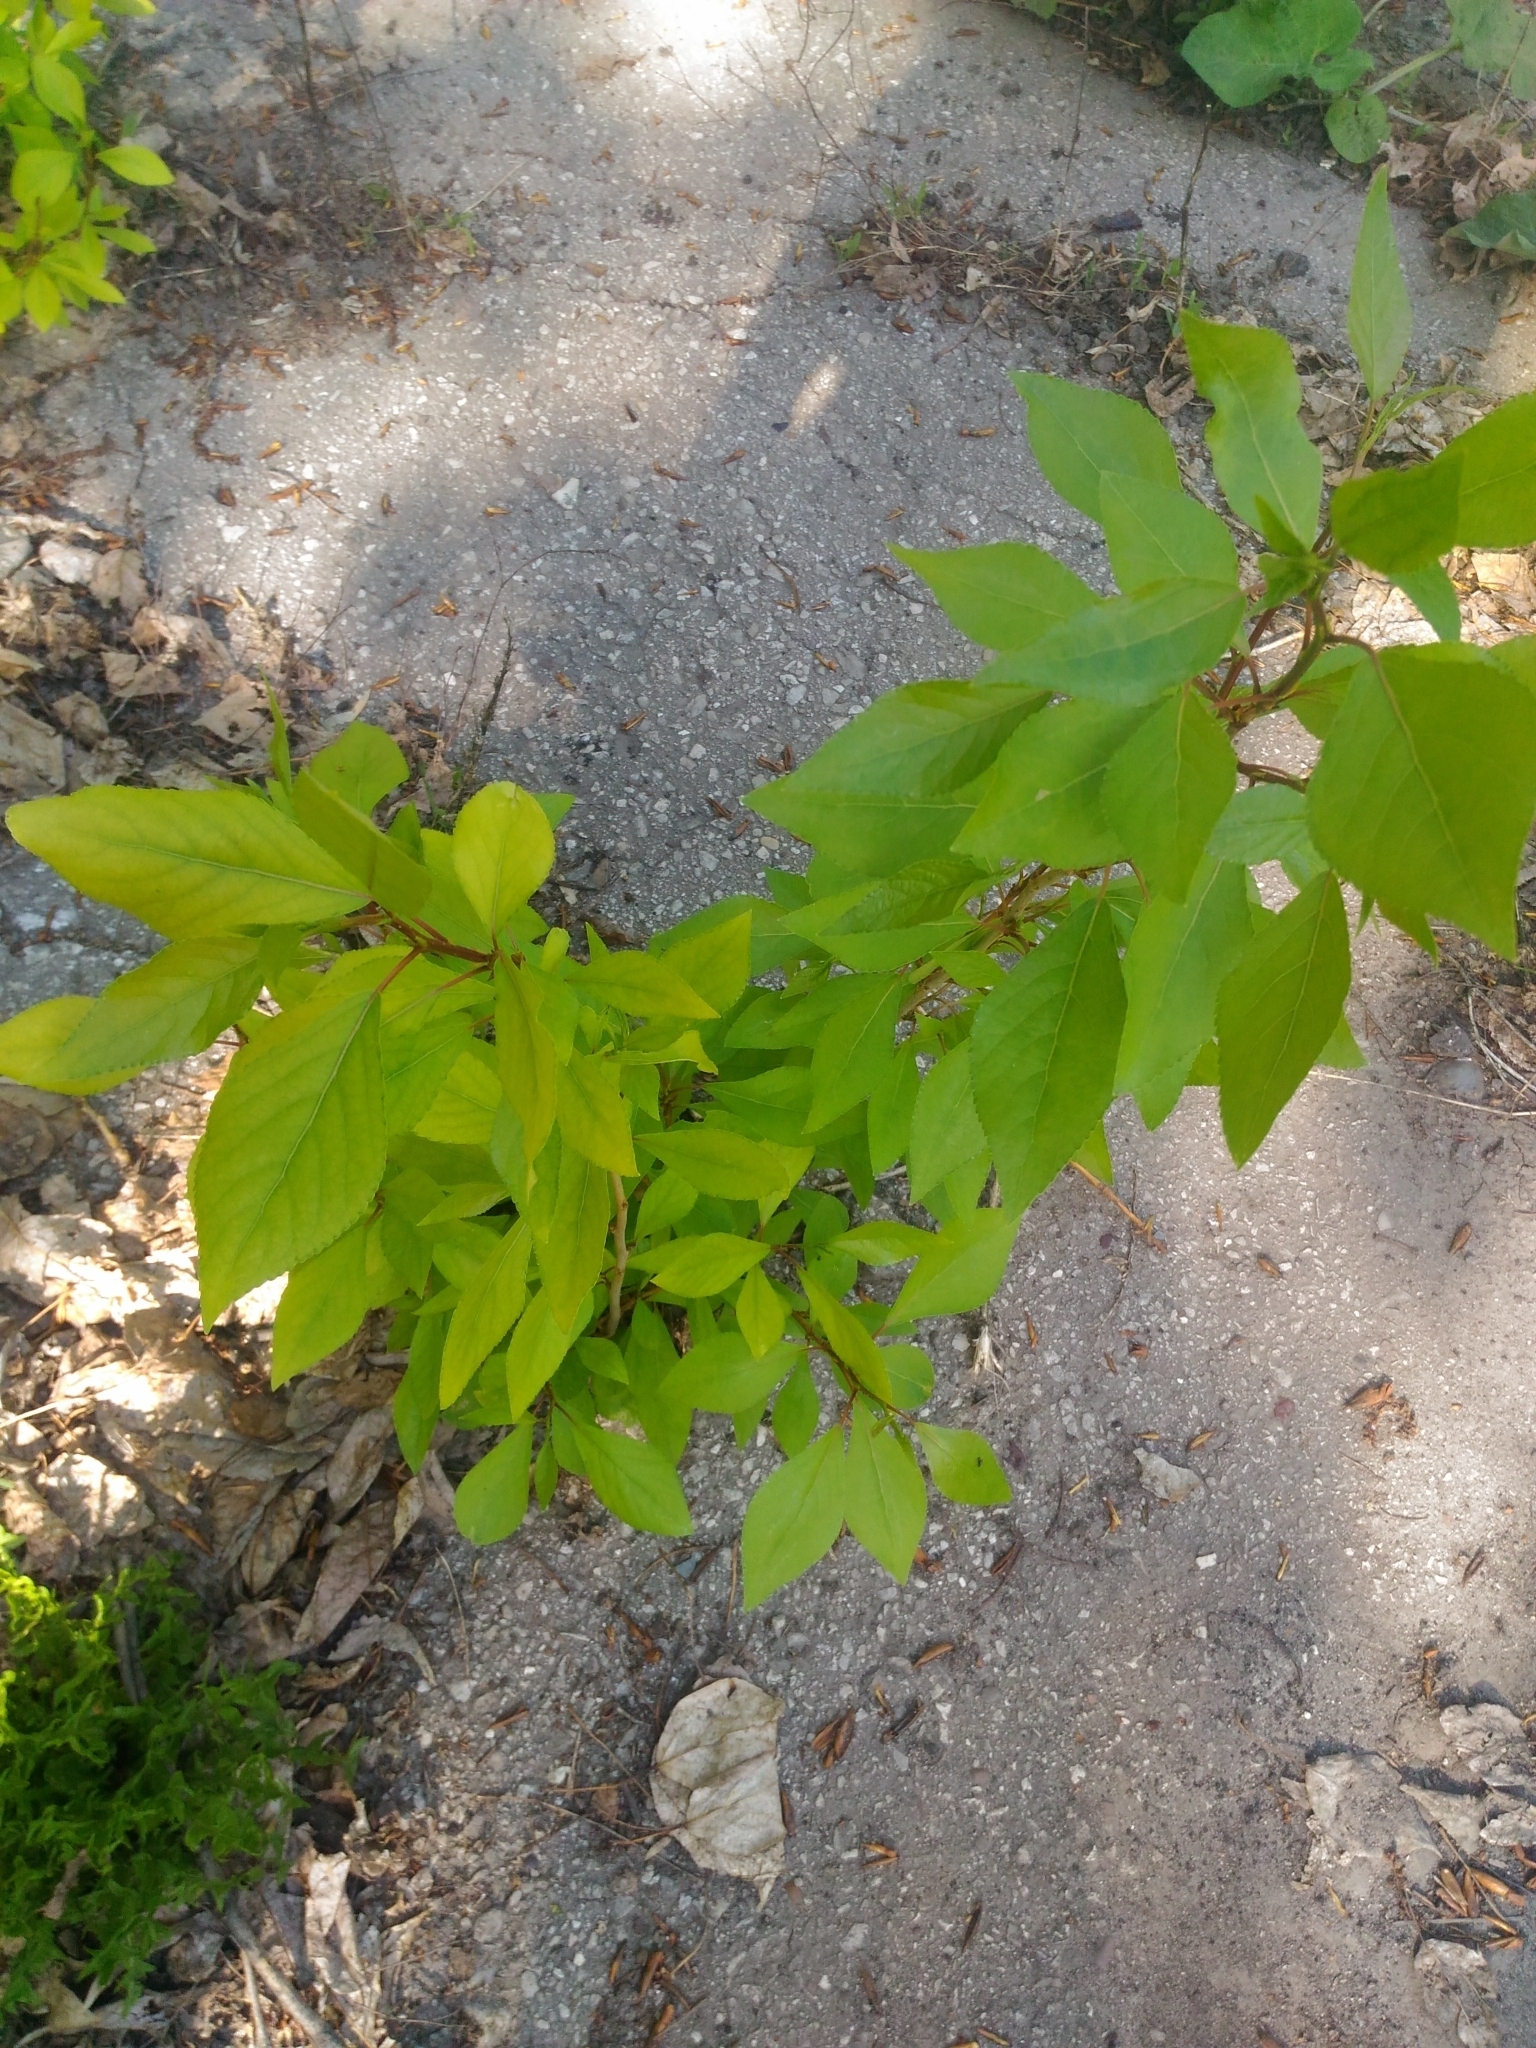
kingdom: Plantae
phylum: Tracheophyta
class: Magnoliopsida
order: Malpighiales
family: Salicaceae
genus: Populus
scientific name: Populus
